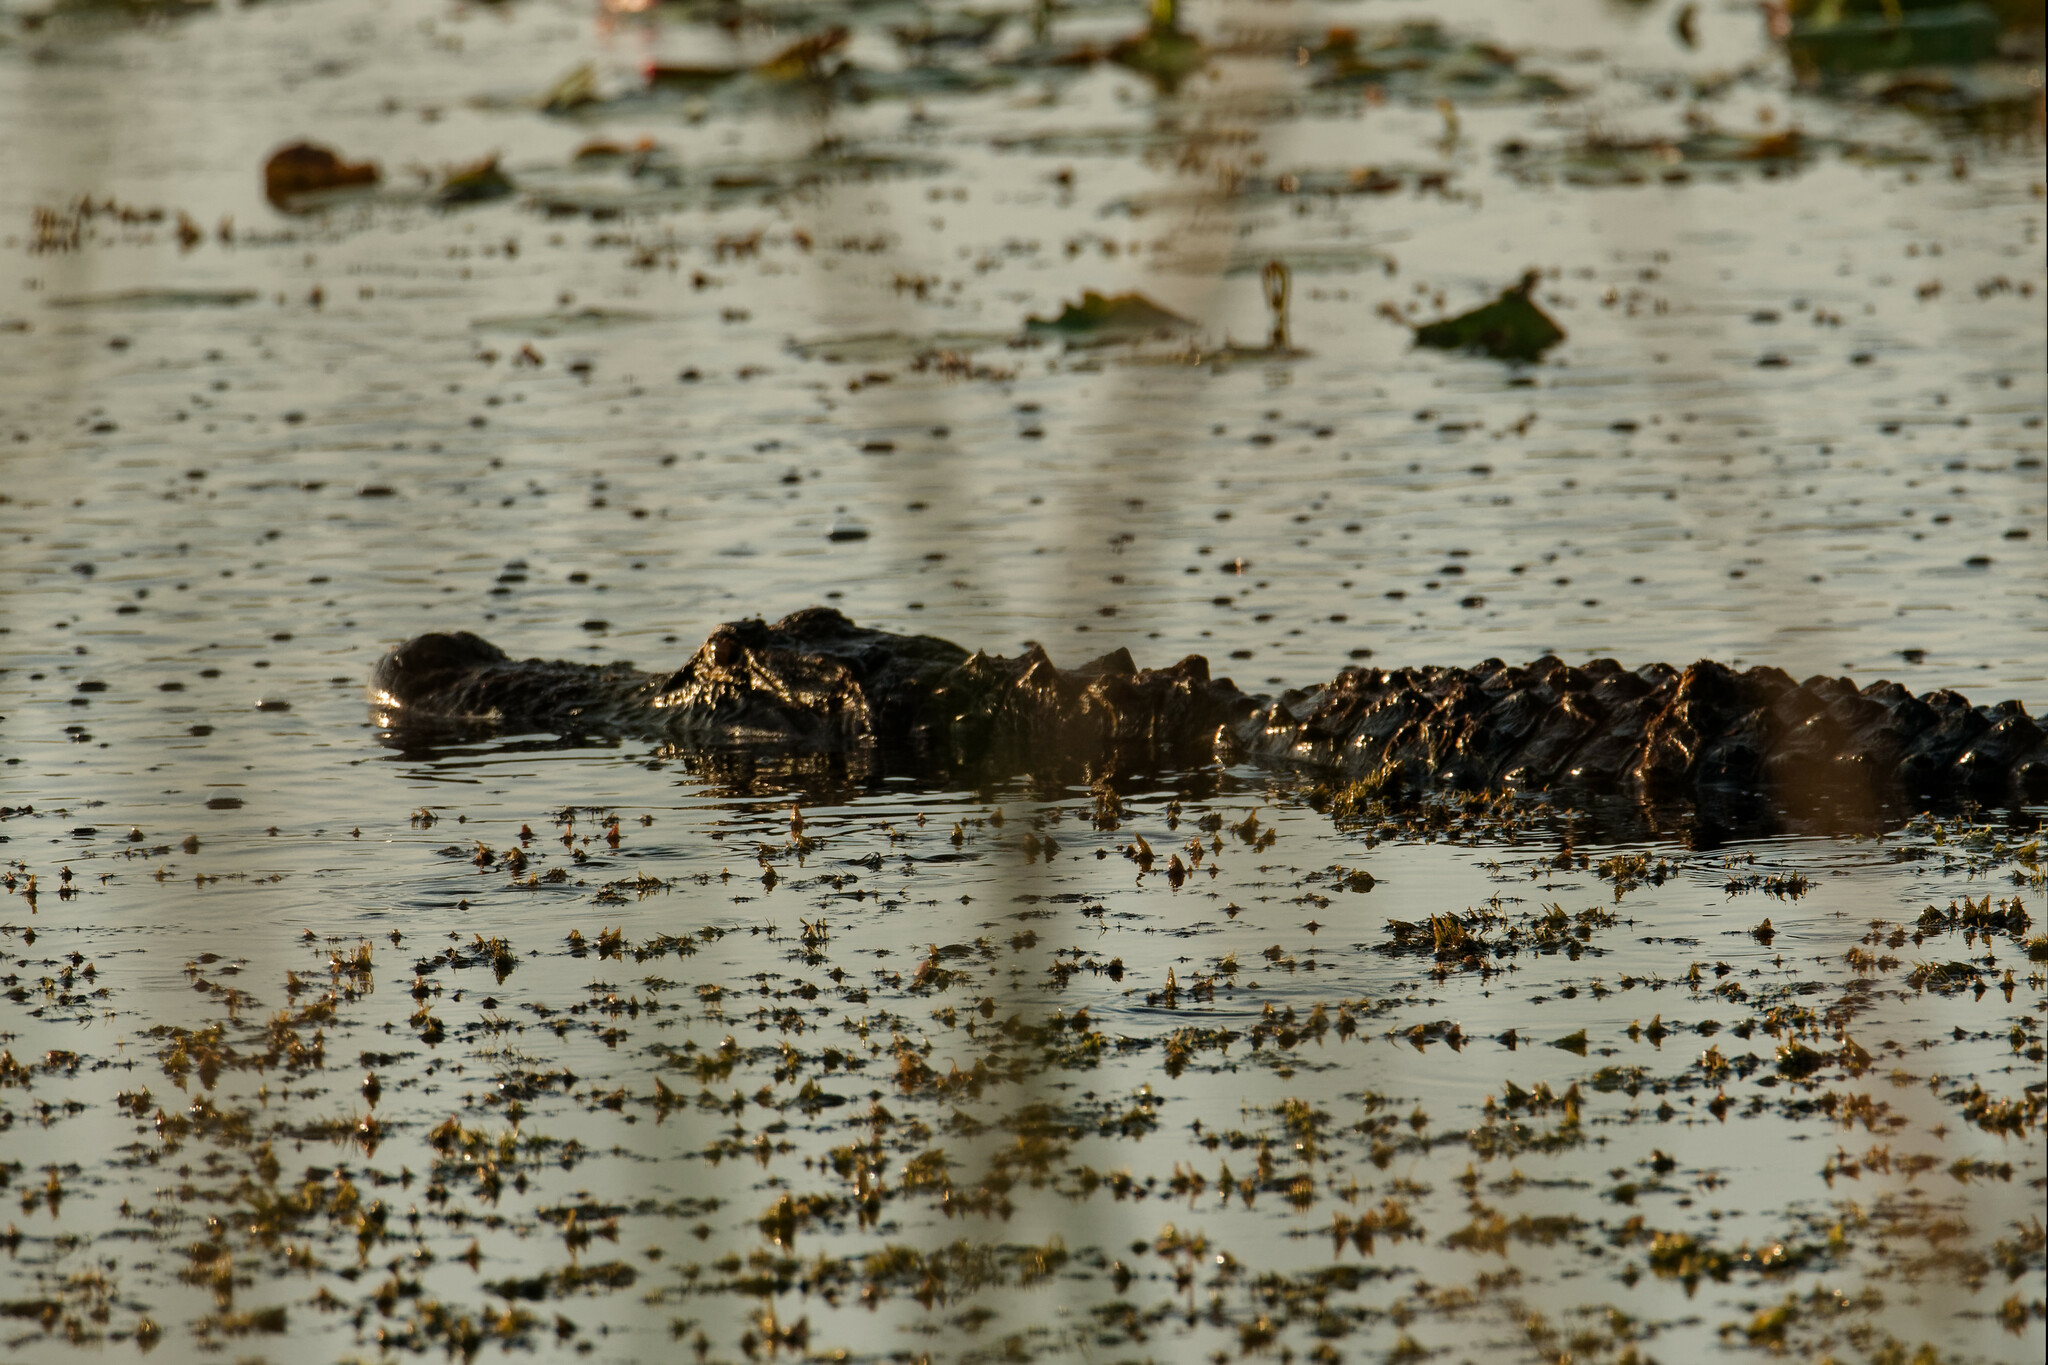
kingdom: Animalia
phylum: Chordata
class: Crocodylia
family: Alligatoridae
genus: Alligator
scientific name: Alligator mississippiensis
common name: American alligator
